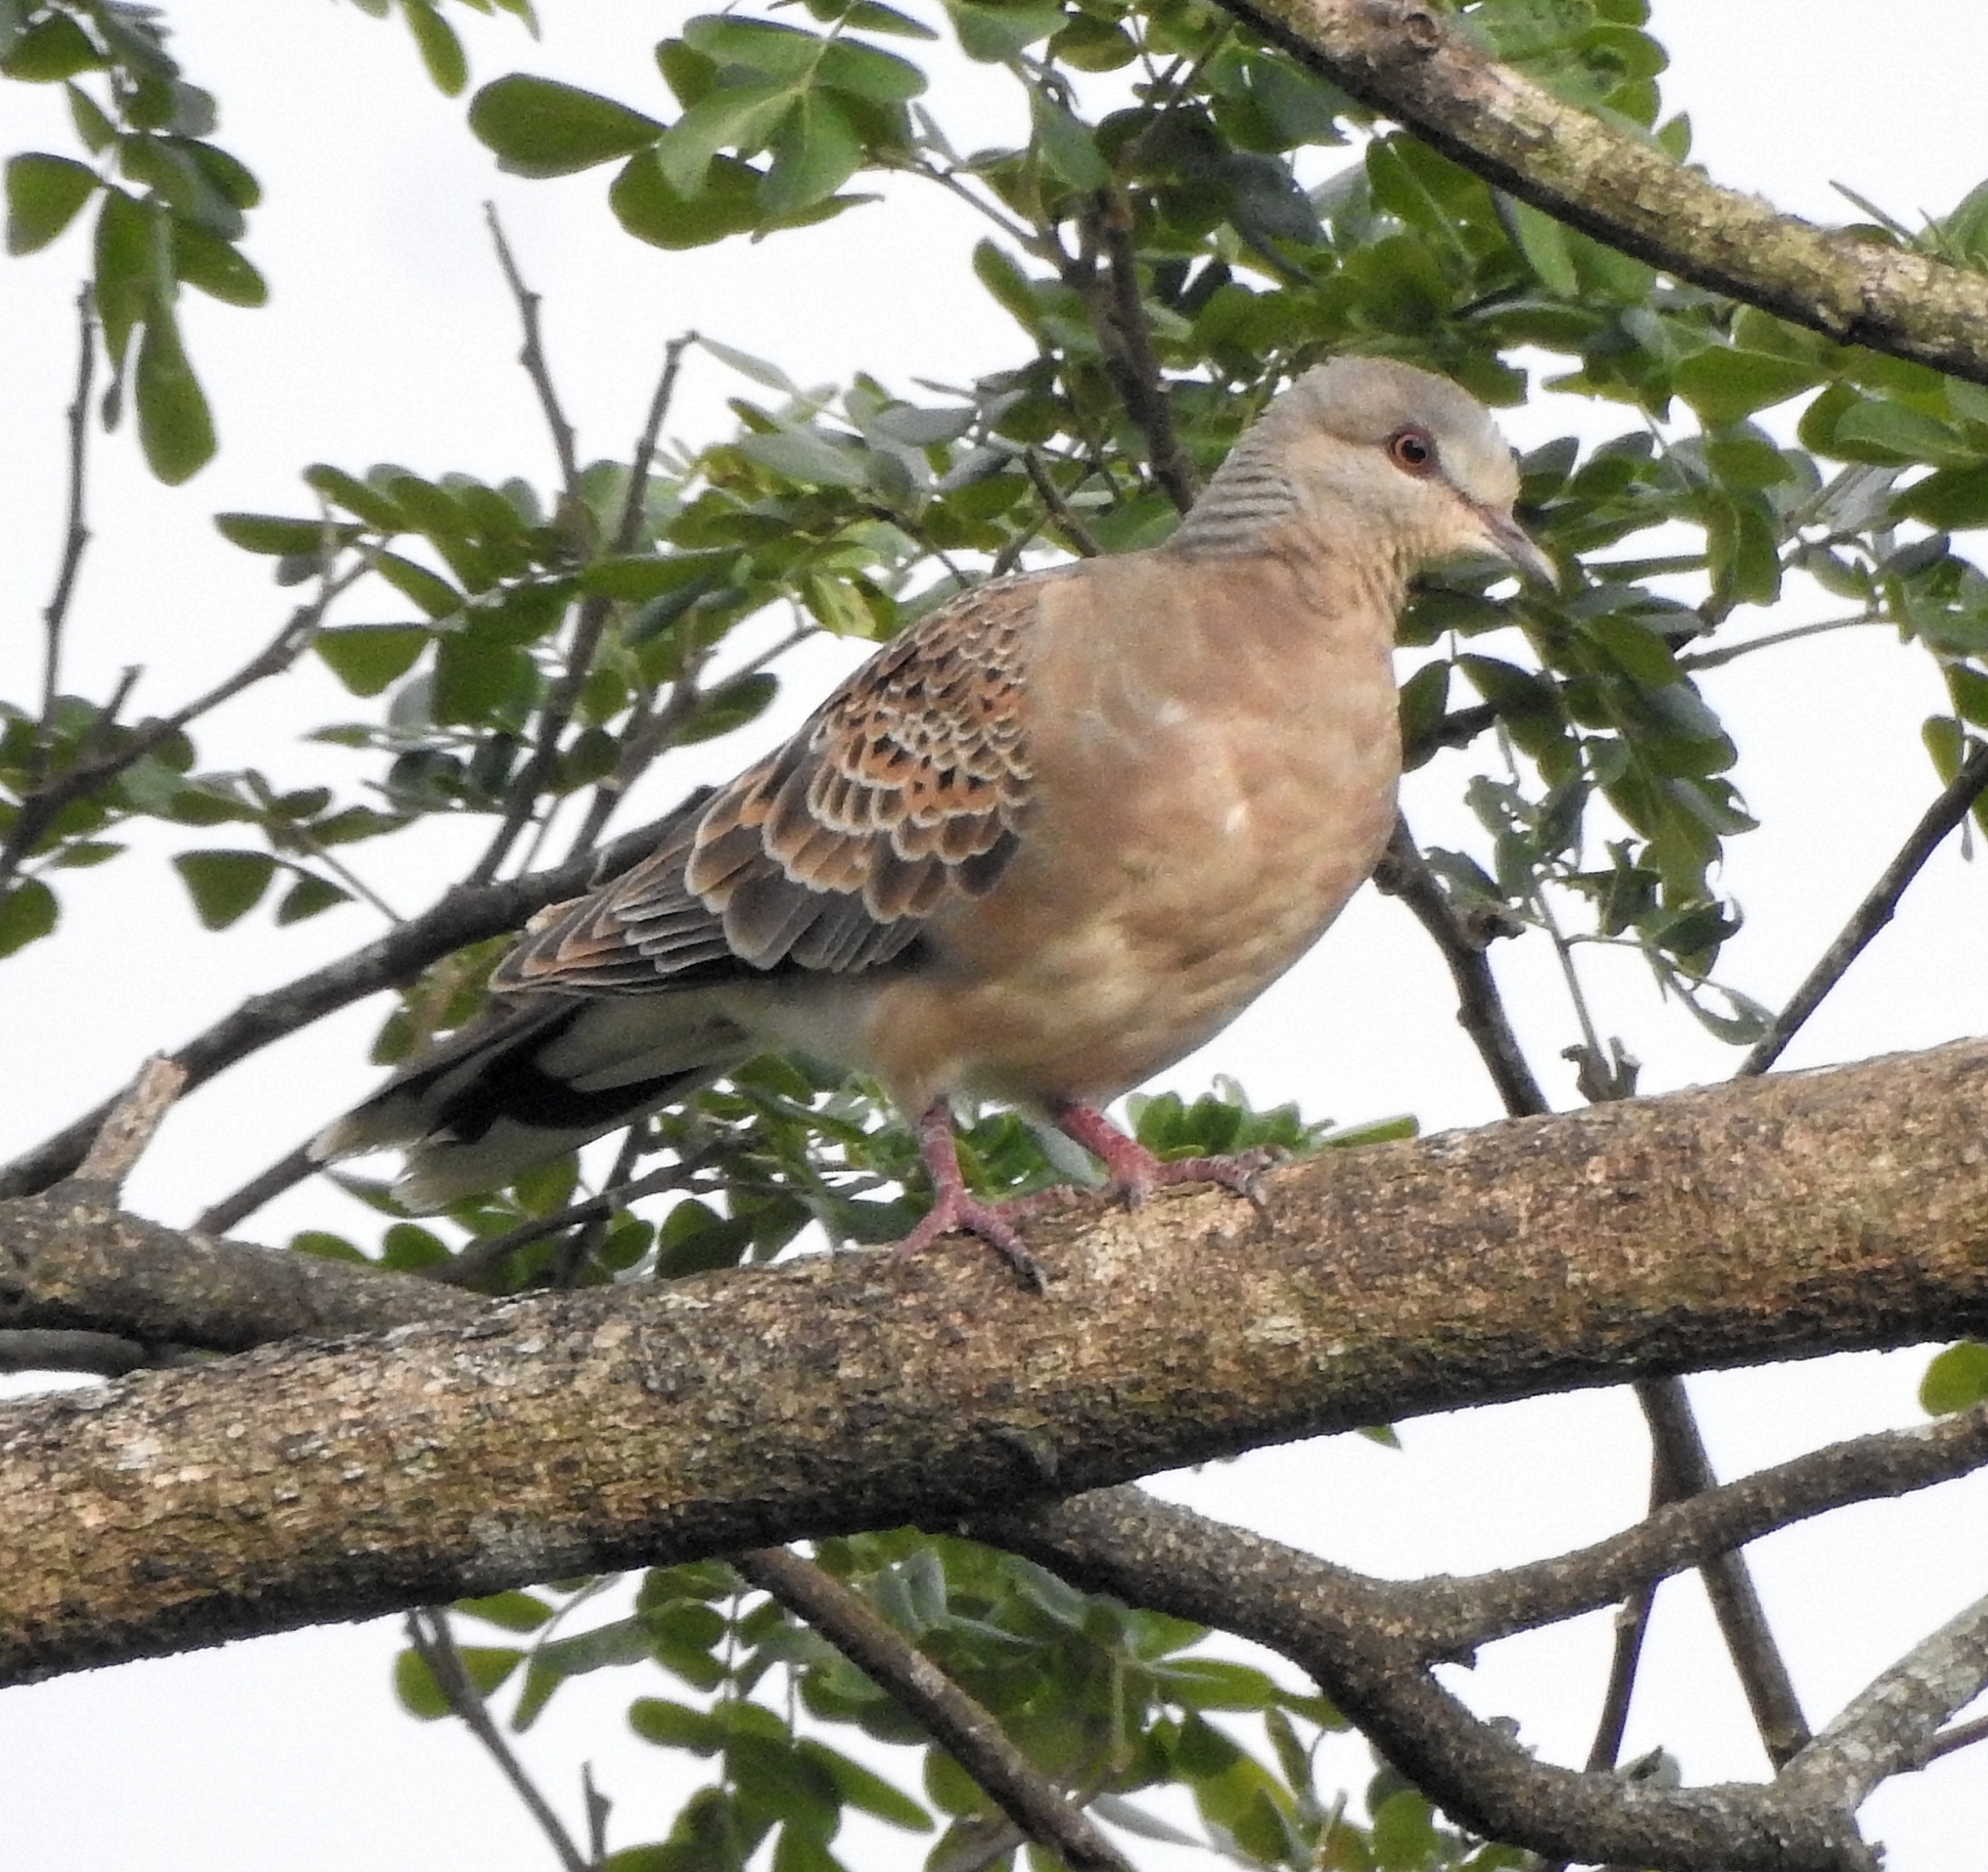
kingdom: Animalia
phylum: Chordata
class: Aves
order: Columbiformes
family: Columbidae
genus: Streptopelia
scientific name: Streptopelia orientalis
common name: Oriental turtle dove
